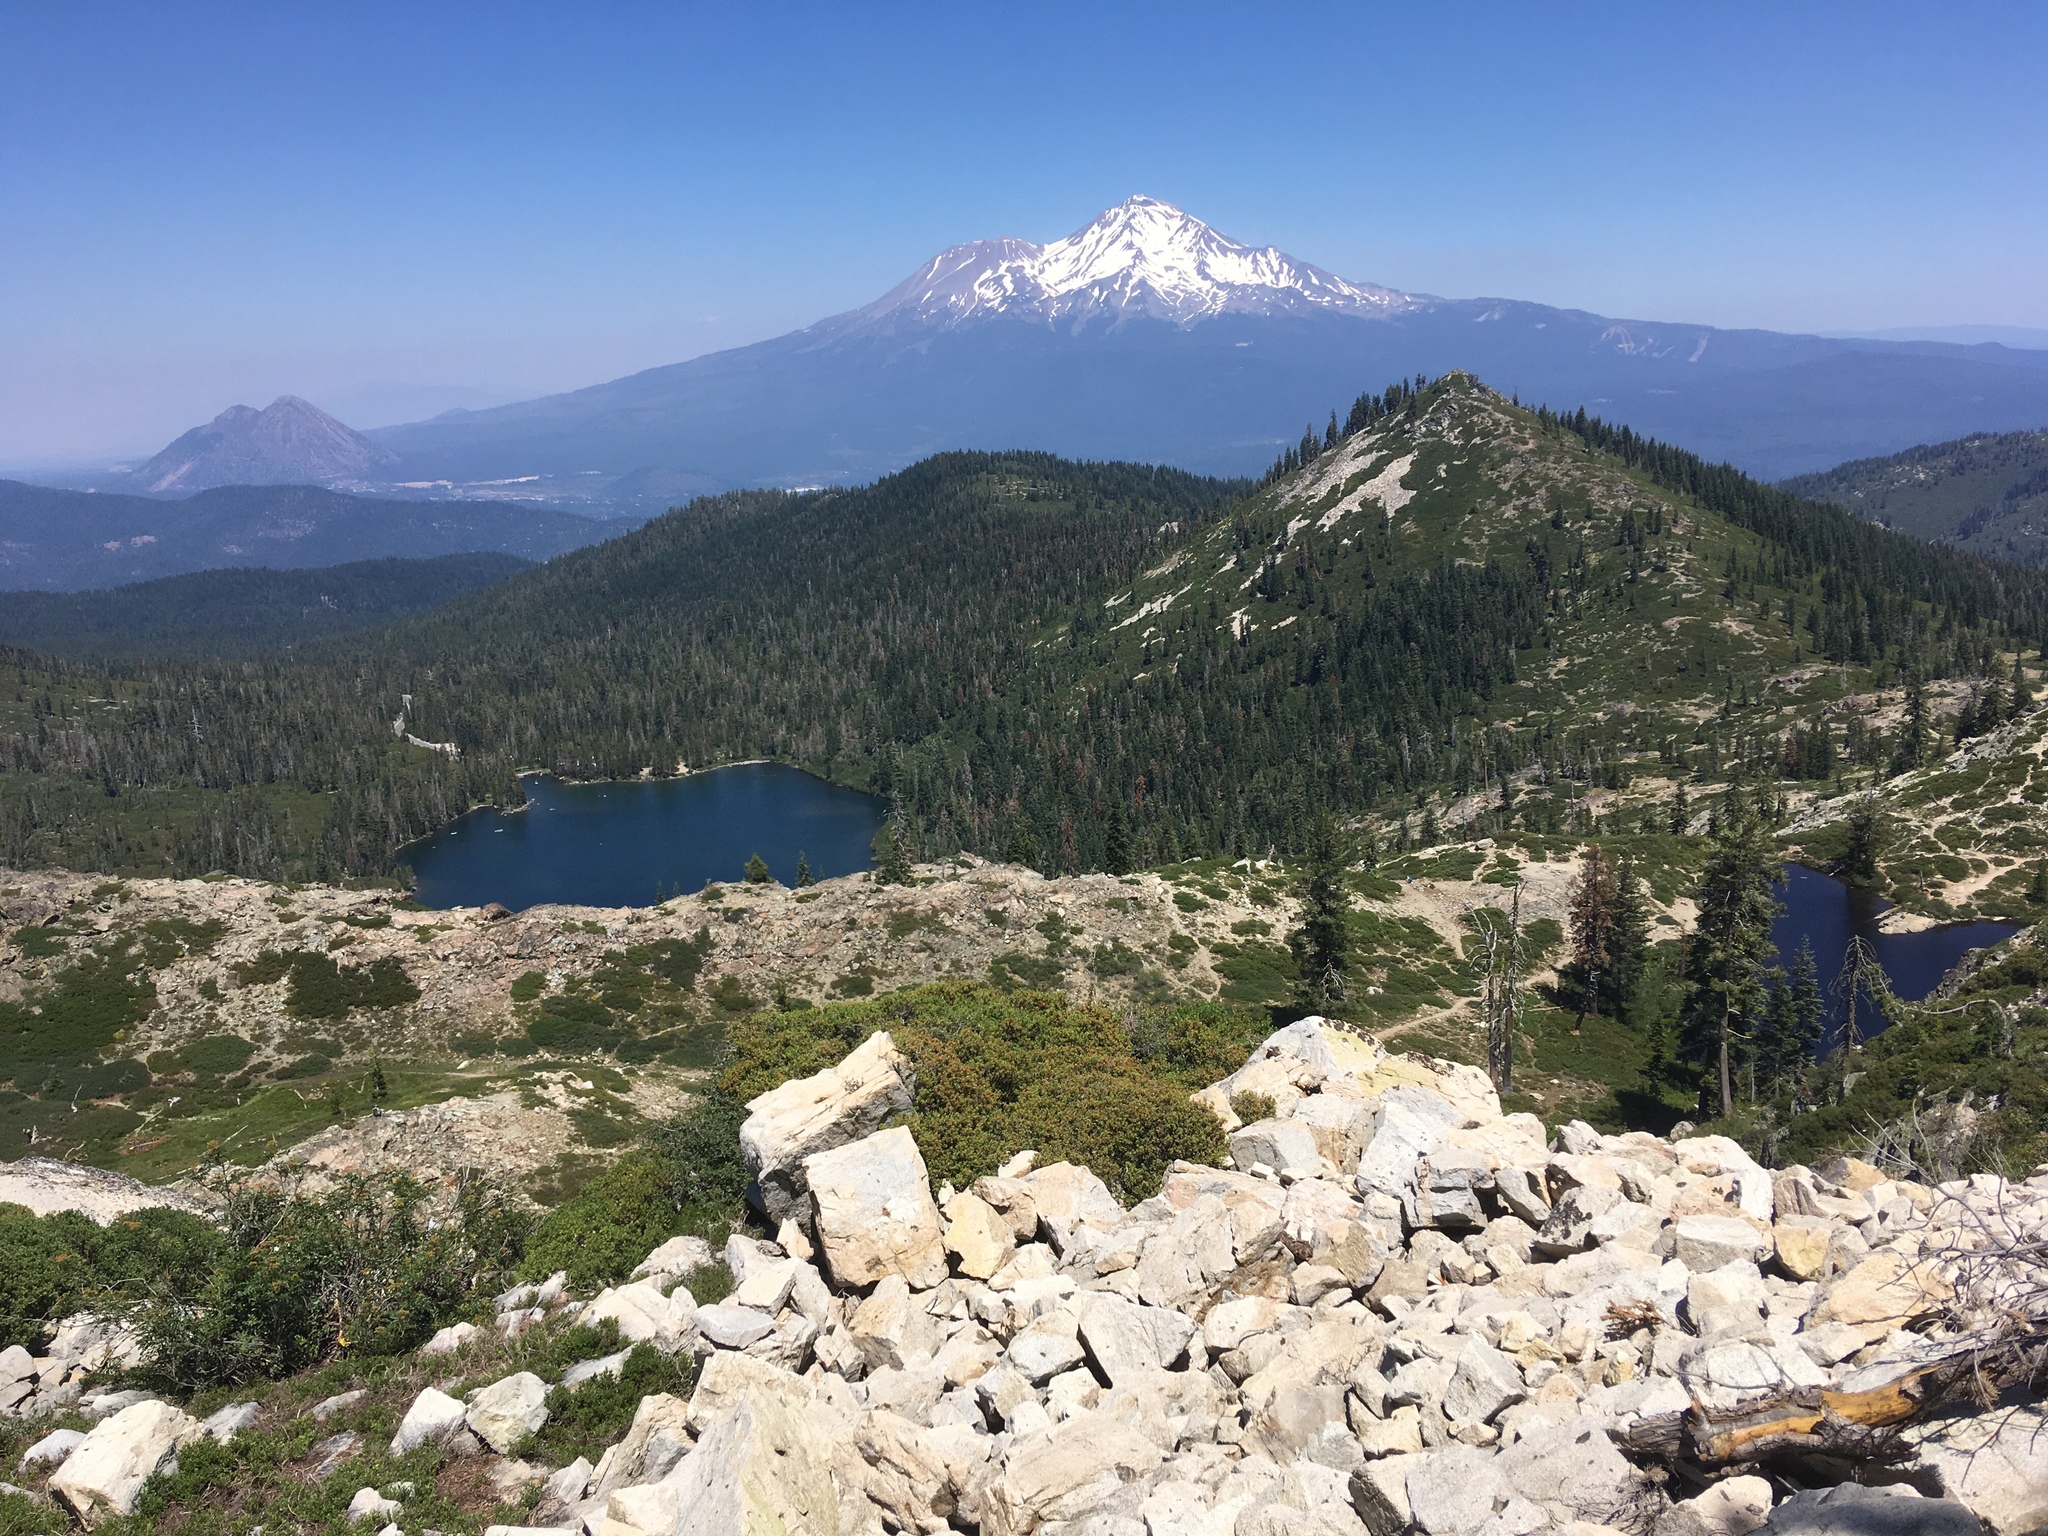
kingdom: Plantae
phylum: Tracheophyta
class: Magnoliopsida
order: Asterales
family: Campanulaceae
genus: Campanula
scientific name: Campanula shetleri
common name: Castle crag harebell
